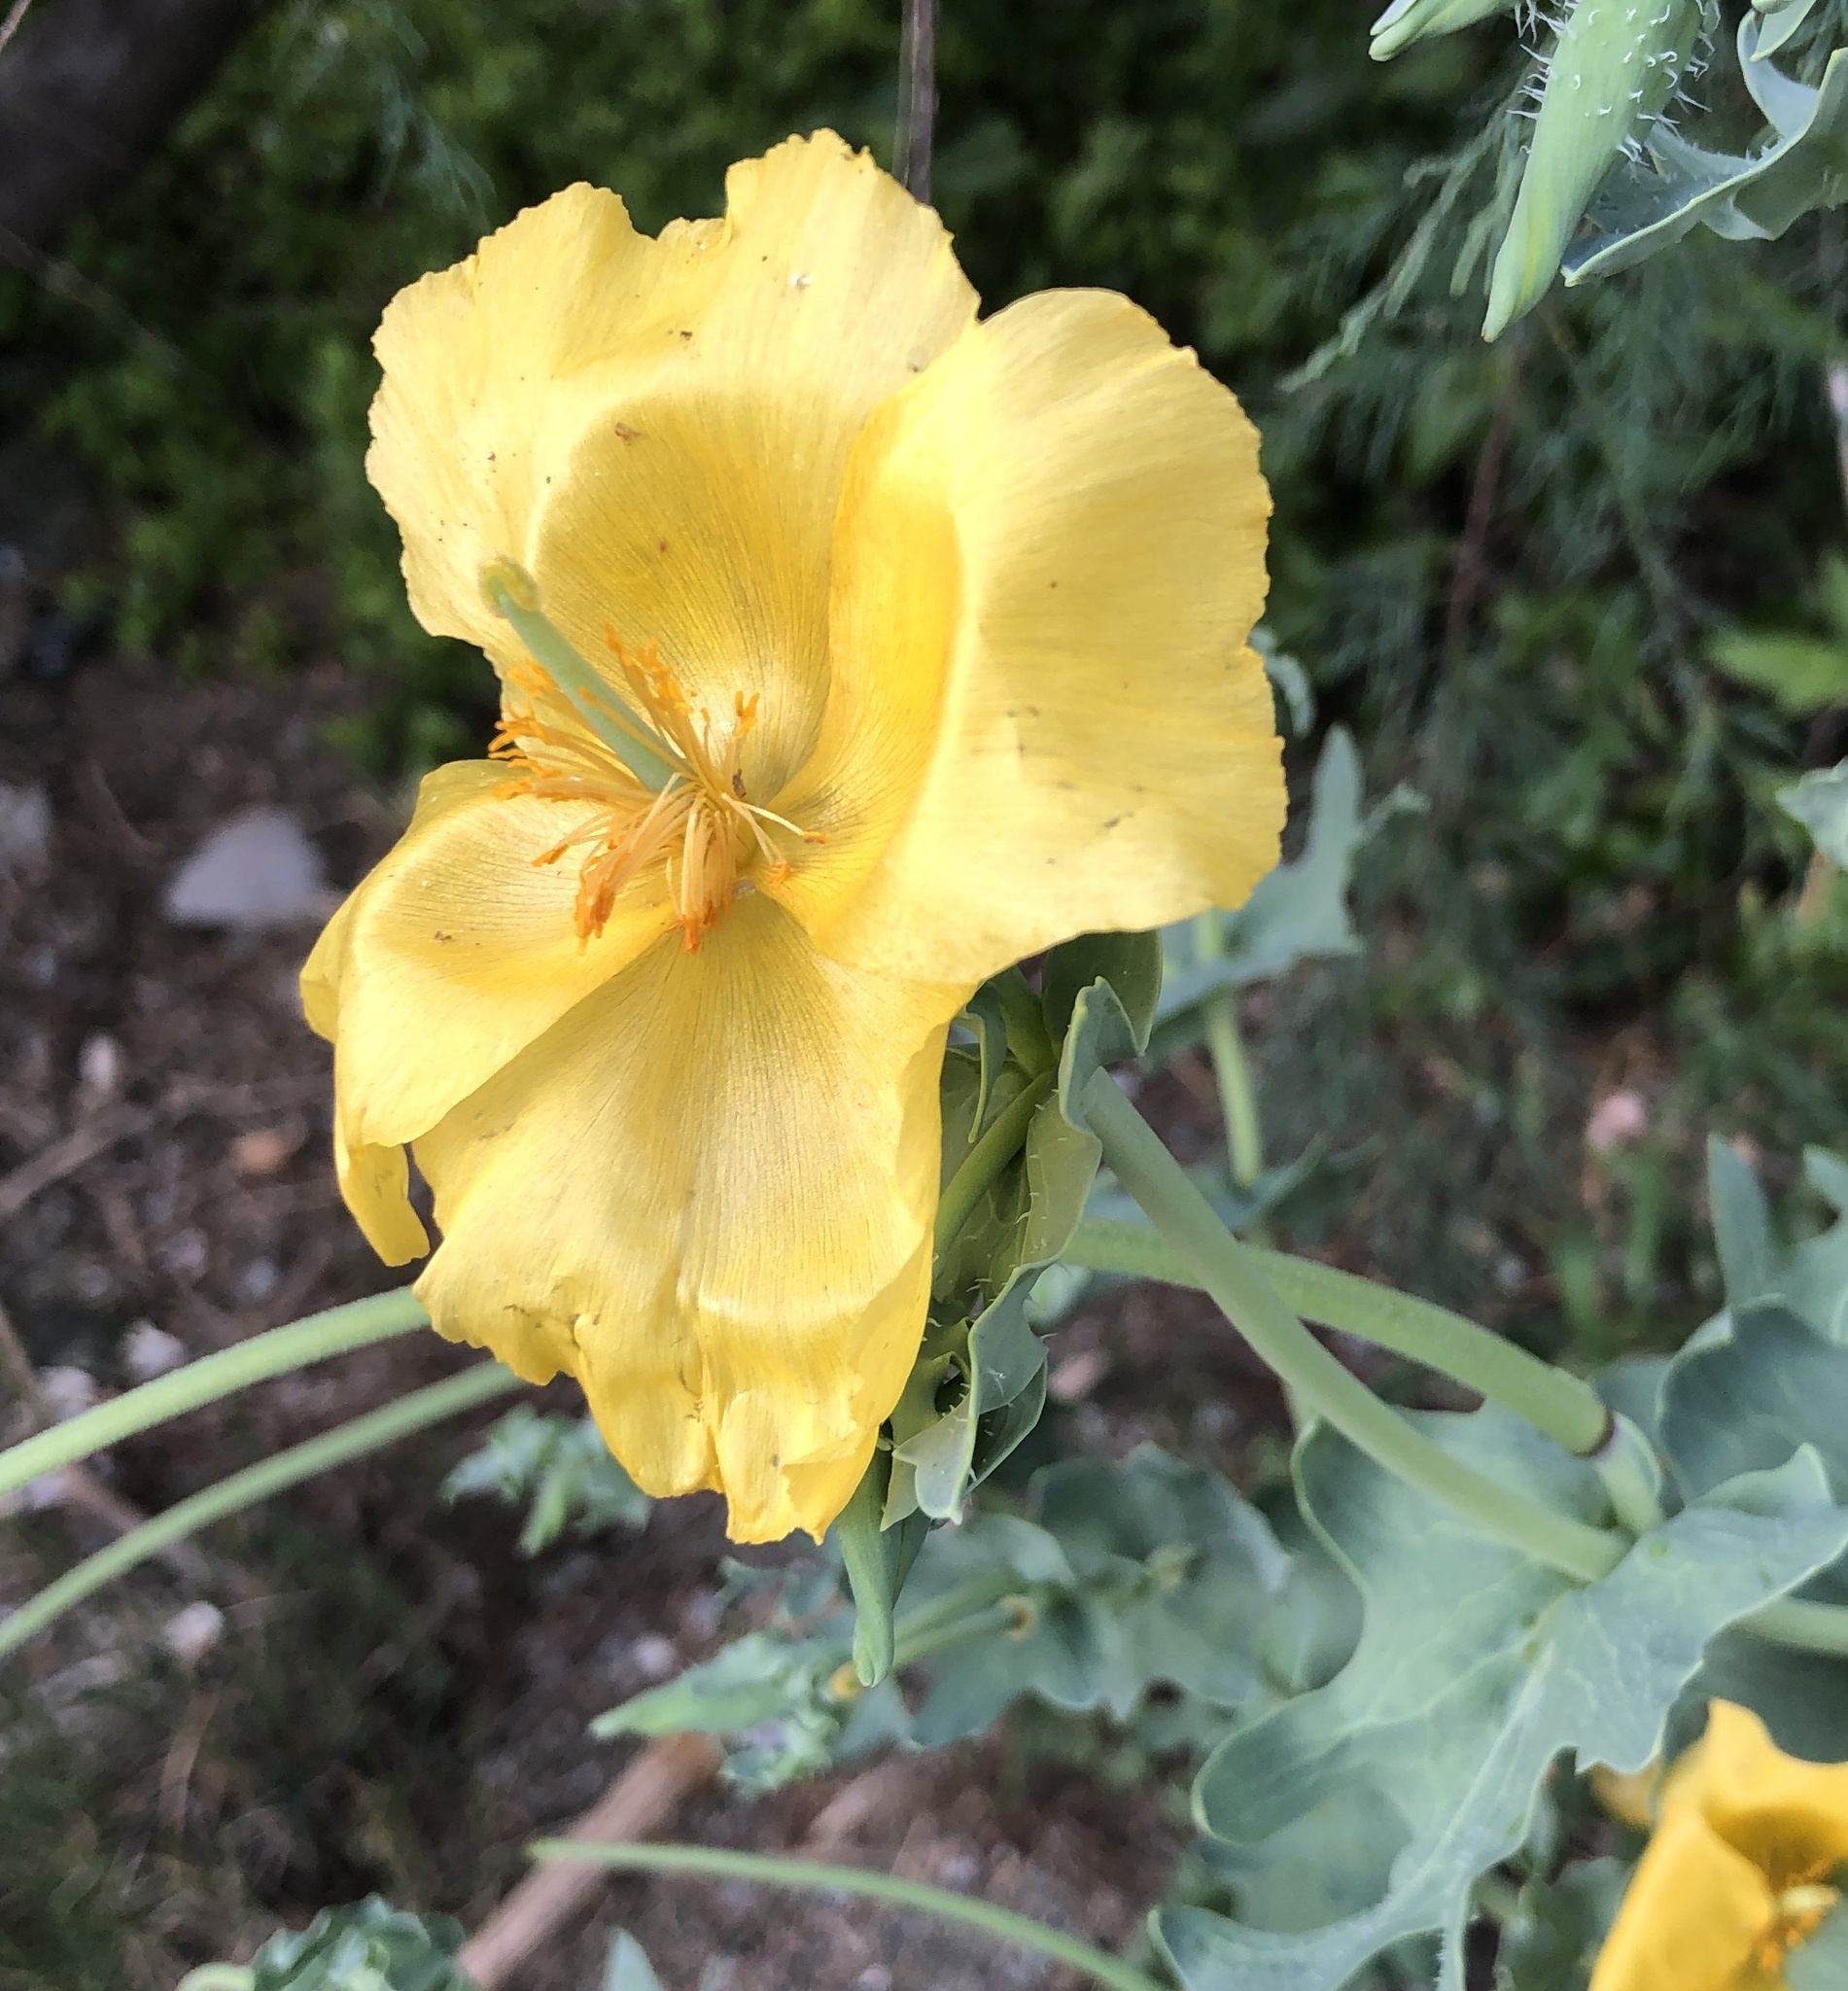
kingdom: Plantae
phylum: Tracheophyta
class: Magnoliopsida
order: Ranunculales
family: Papaveraceae
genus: Glaucium
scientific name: Glaucium flavum
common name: Yellow horned-poppy
